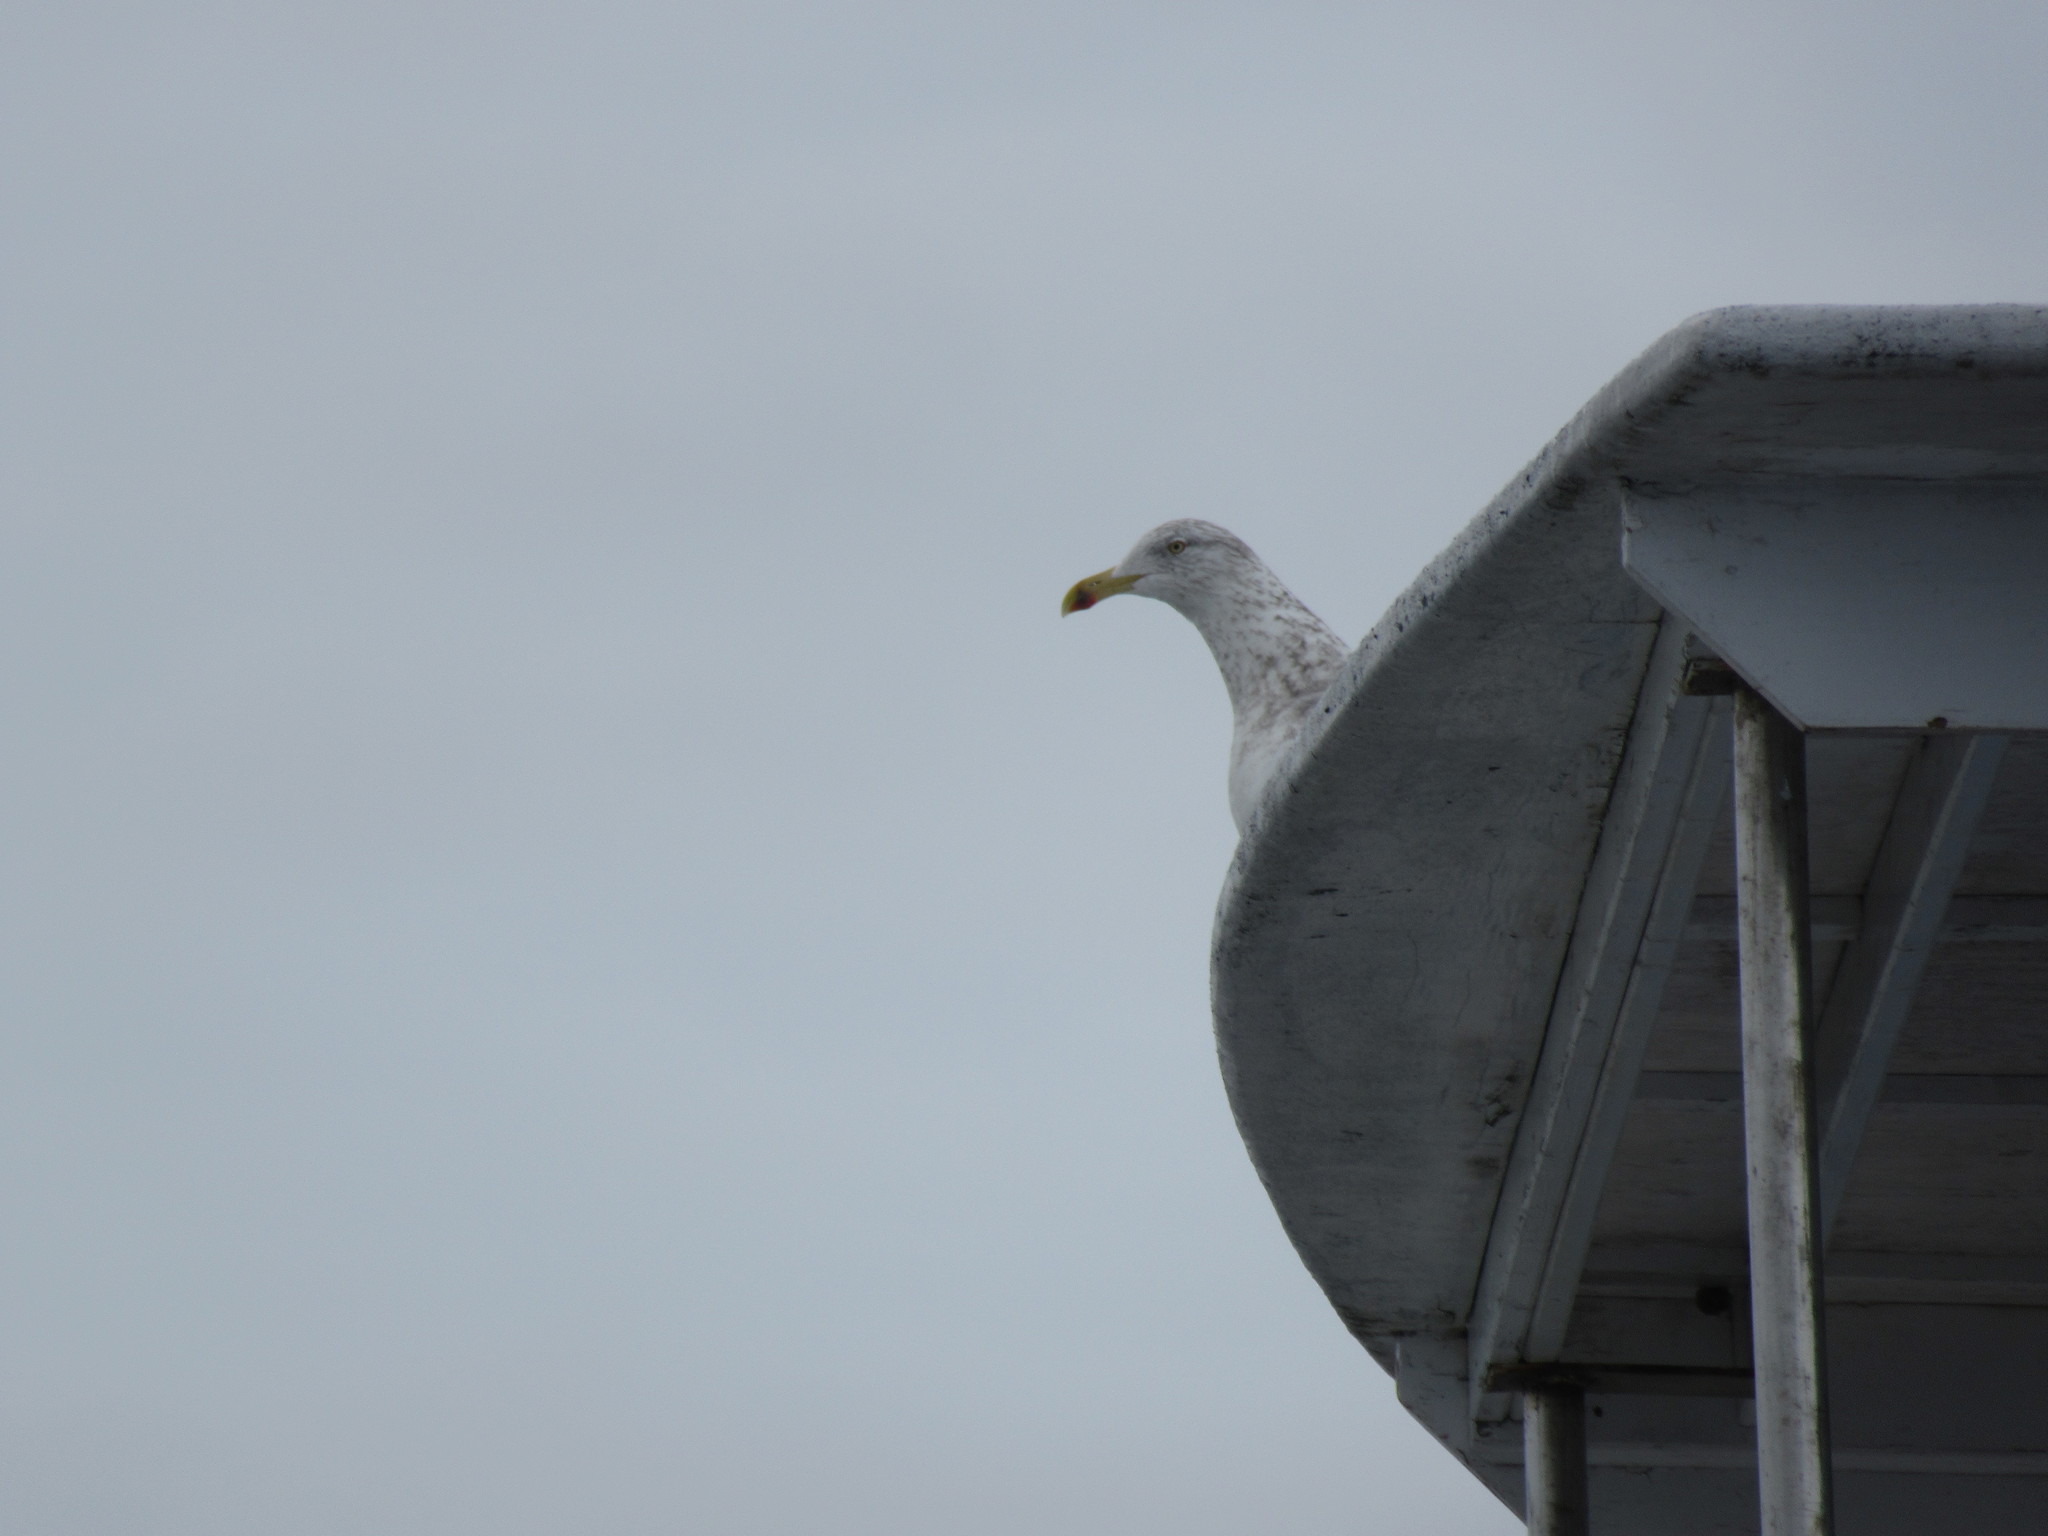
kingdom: Animalia
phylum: Chordata
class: Aves
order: Charadriiformes
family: Laridae
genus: Larus
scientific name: Larus argentatus
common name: Herring gull
